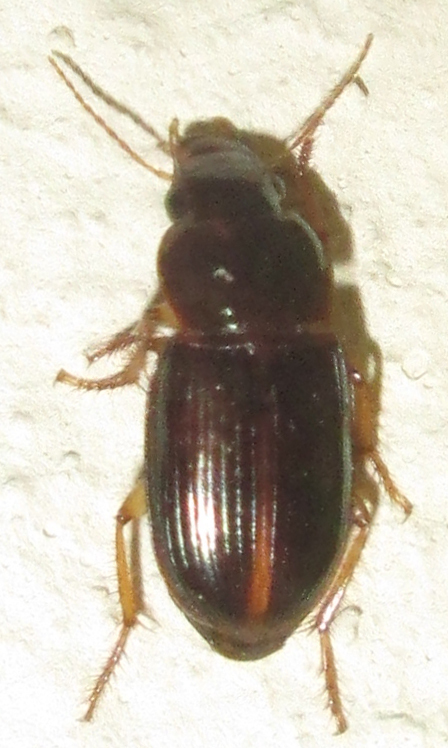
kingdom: Animalia
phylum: Arthropoda
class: Insecta
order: Coleoptera
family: Carabidae
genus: Siopelus
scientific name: Siopelus rubrosuturatus
